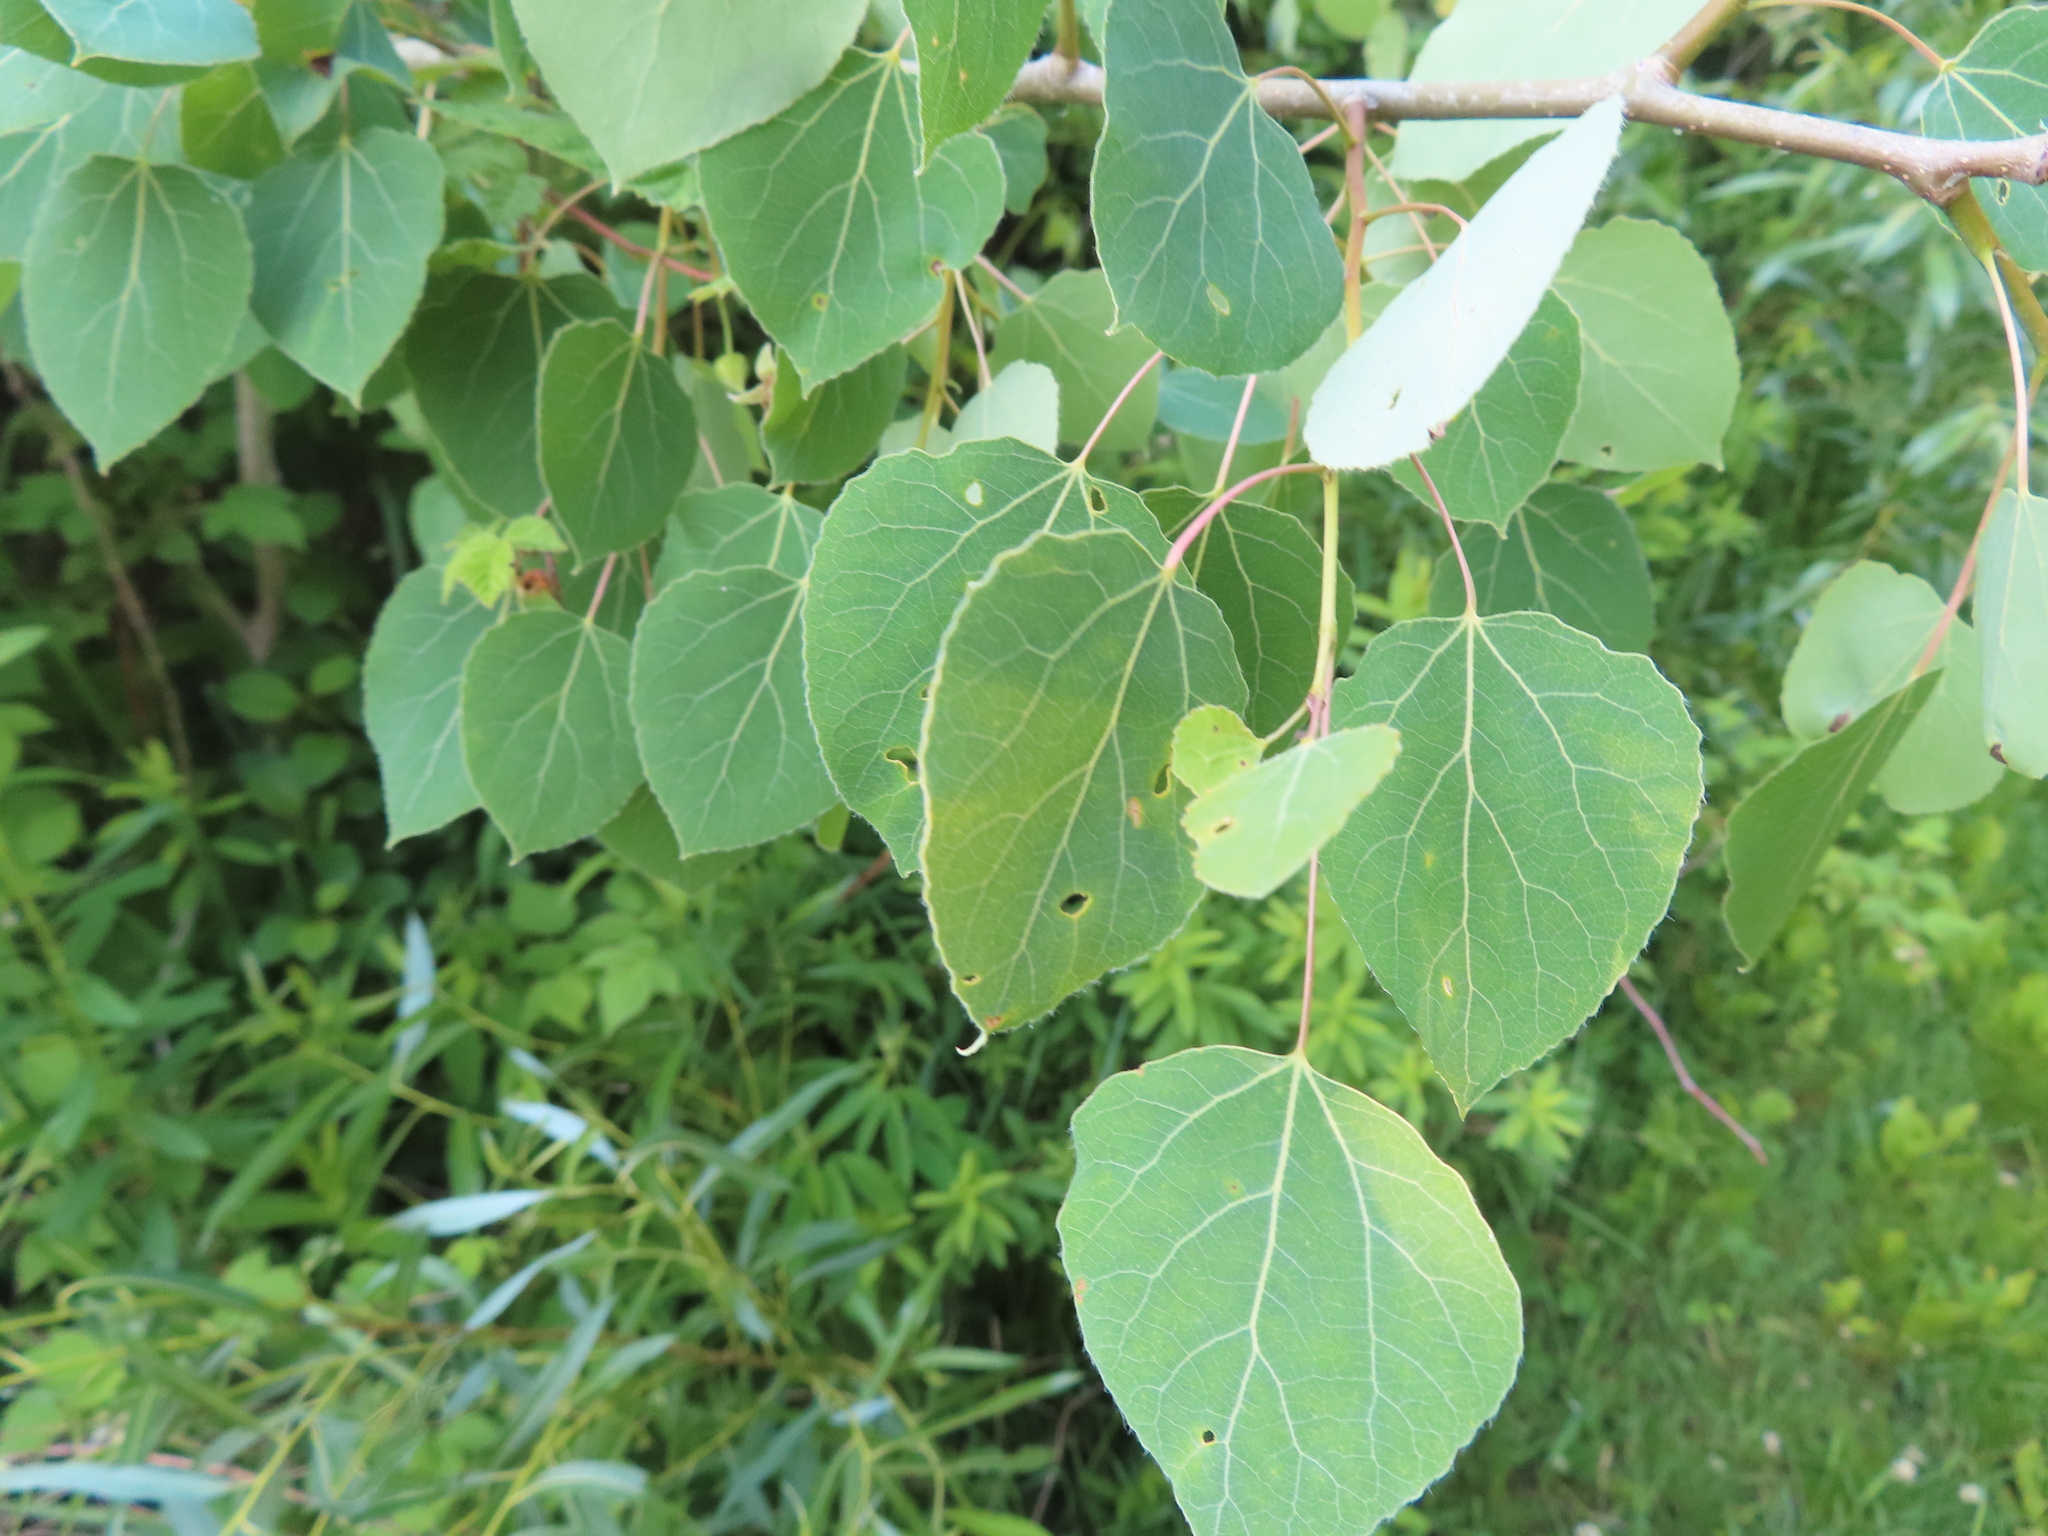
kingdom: Plantae
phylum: Tracheophyta
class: Magnoliopsida
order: Malpighiales
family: Salicaceae
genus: Populus
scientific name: Populus tremuloides
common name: Quaking aspen
